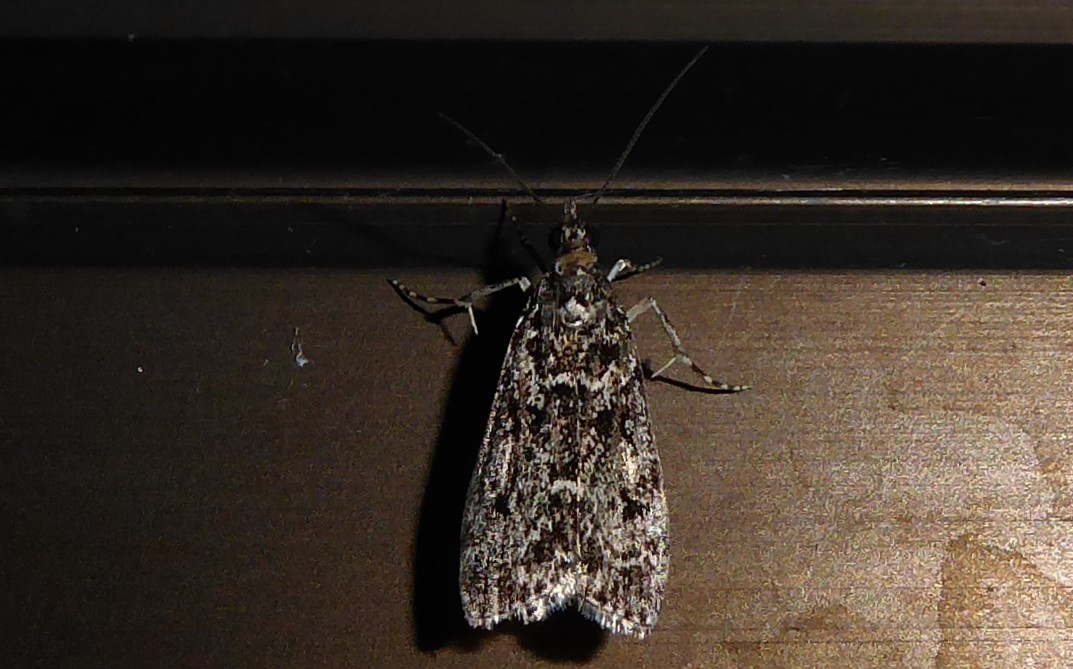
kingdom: Animalia
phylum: Arthropoda
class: Insecta
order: Lepidoptera
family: Crambidae
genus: Eudonia
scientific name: Eudonia philerga
